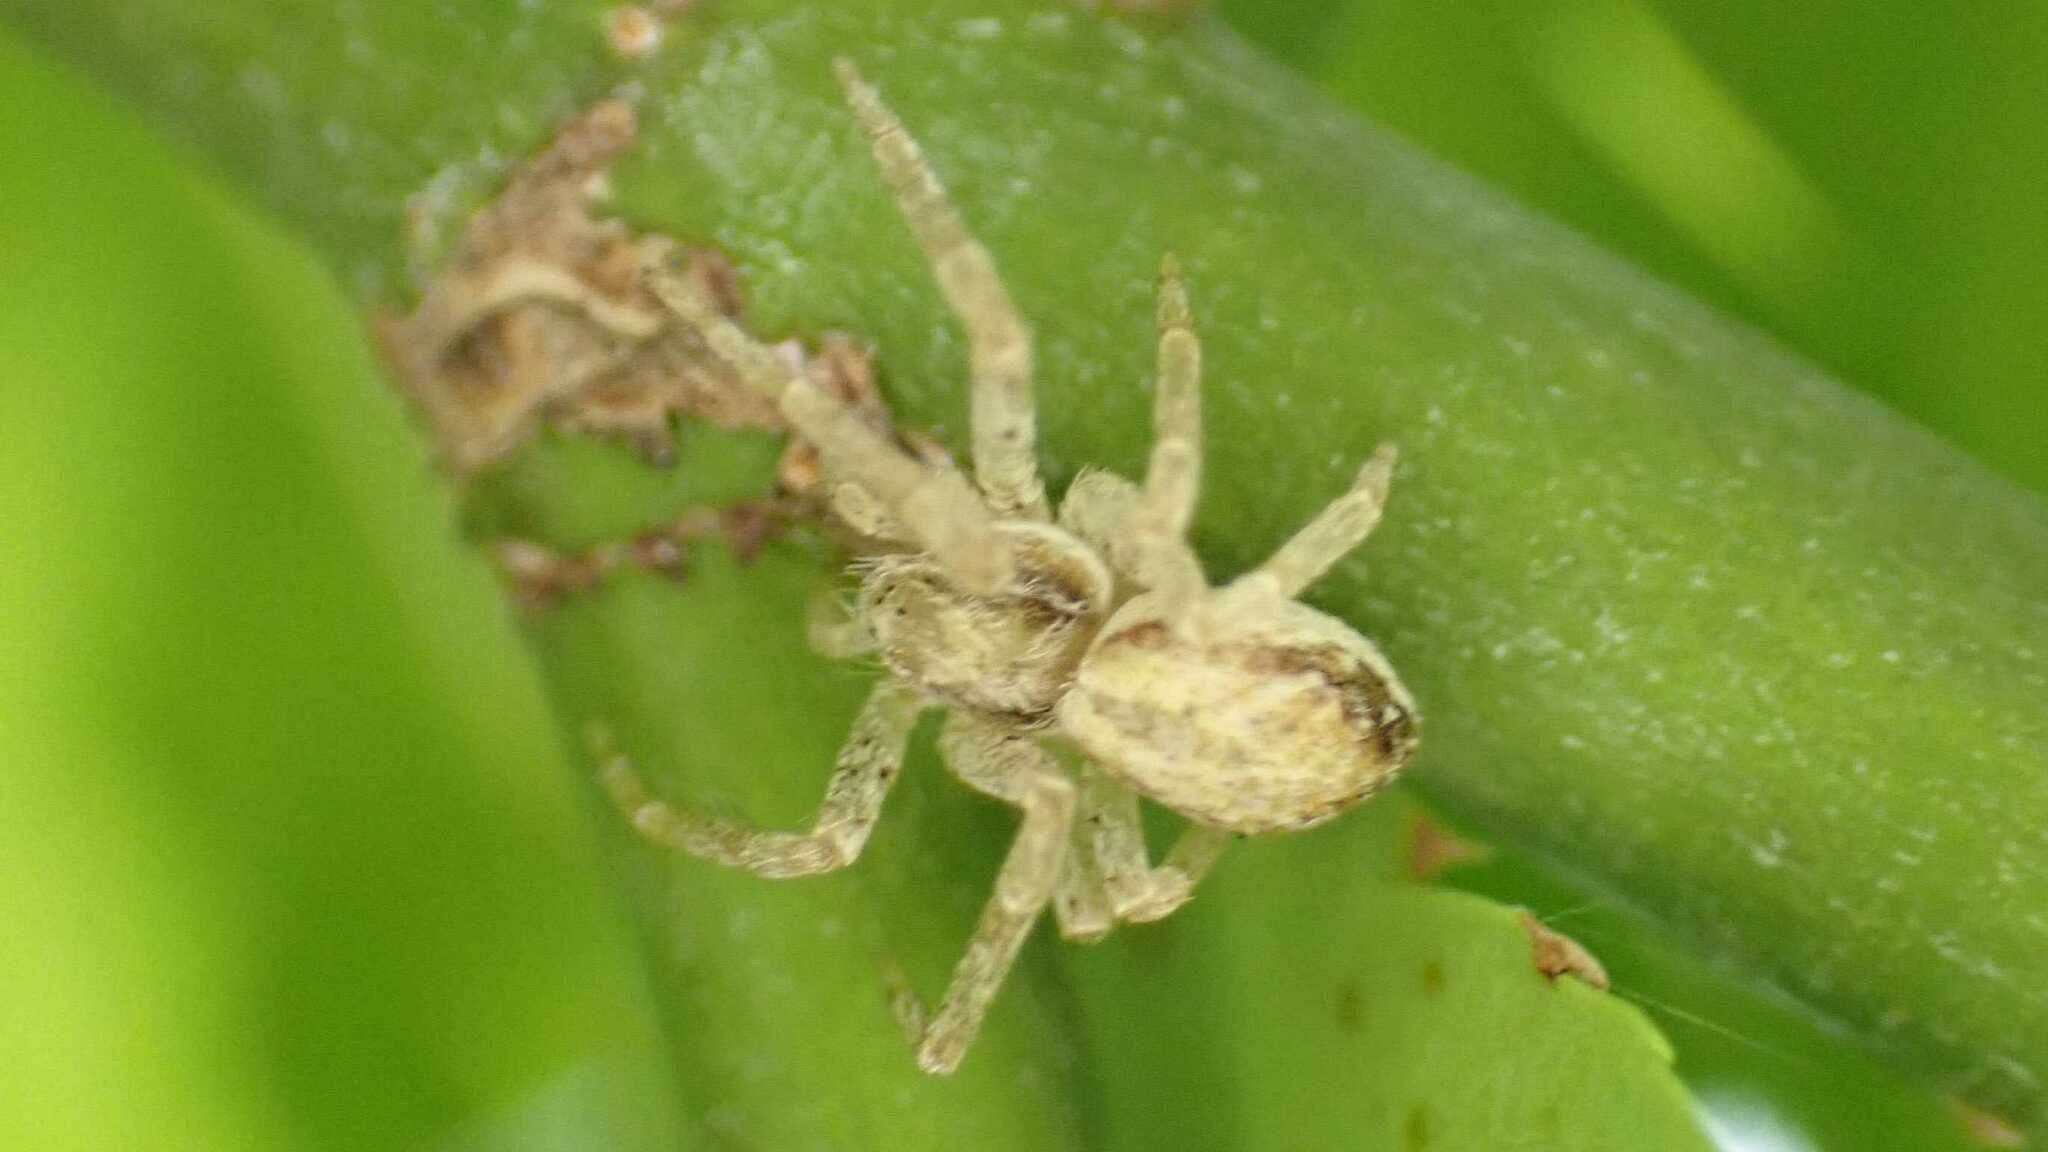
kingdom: Animalia
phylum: Arthropoda
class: Arachnida
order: Araneae
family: Philodromidae
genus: Philodromus
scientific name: Philodromus dispar
